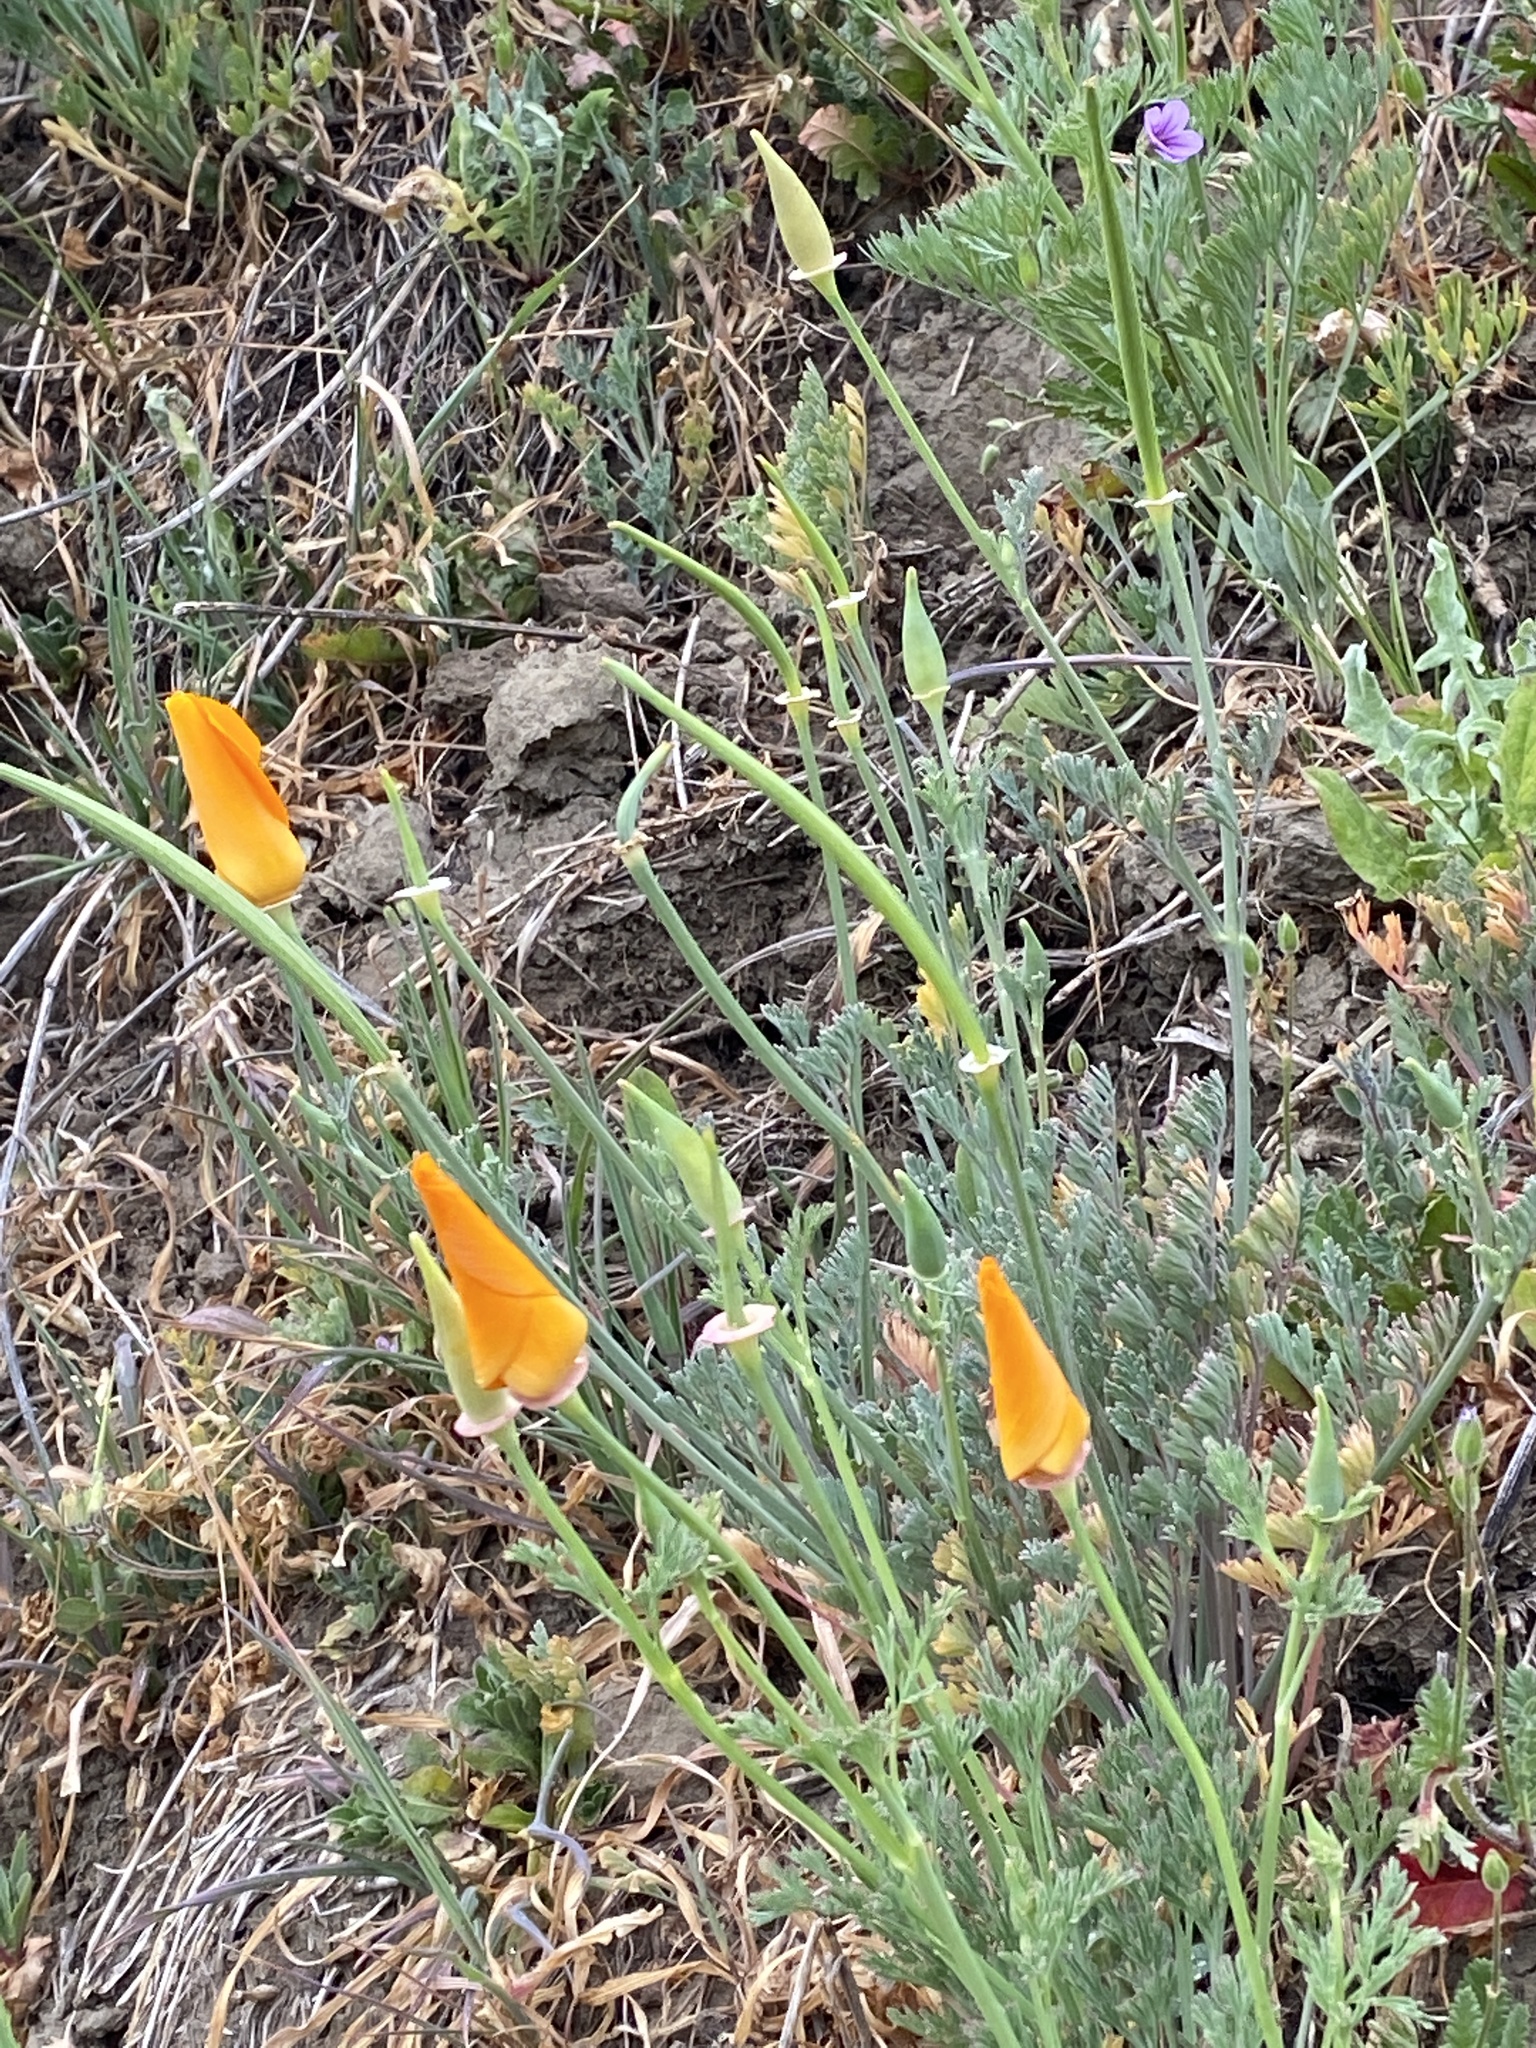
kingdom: Plantae
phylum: Tracheophyta
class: Magnoliopsida
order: Ranunculales
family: Papaveraceae
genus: Eschscholzia
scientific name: Eschscholzia californica
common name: California poppy
